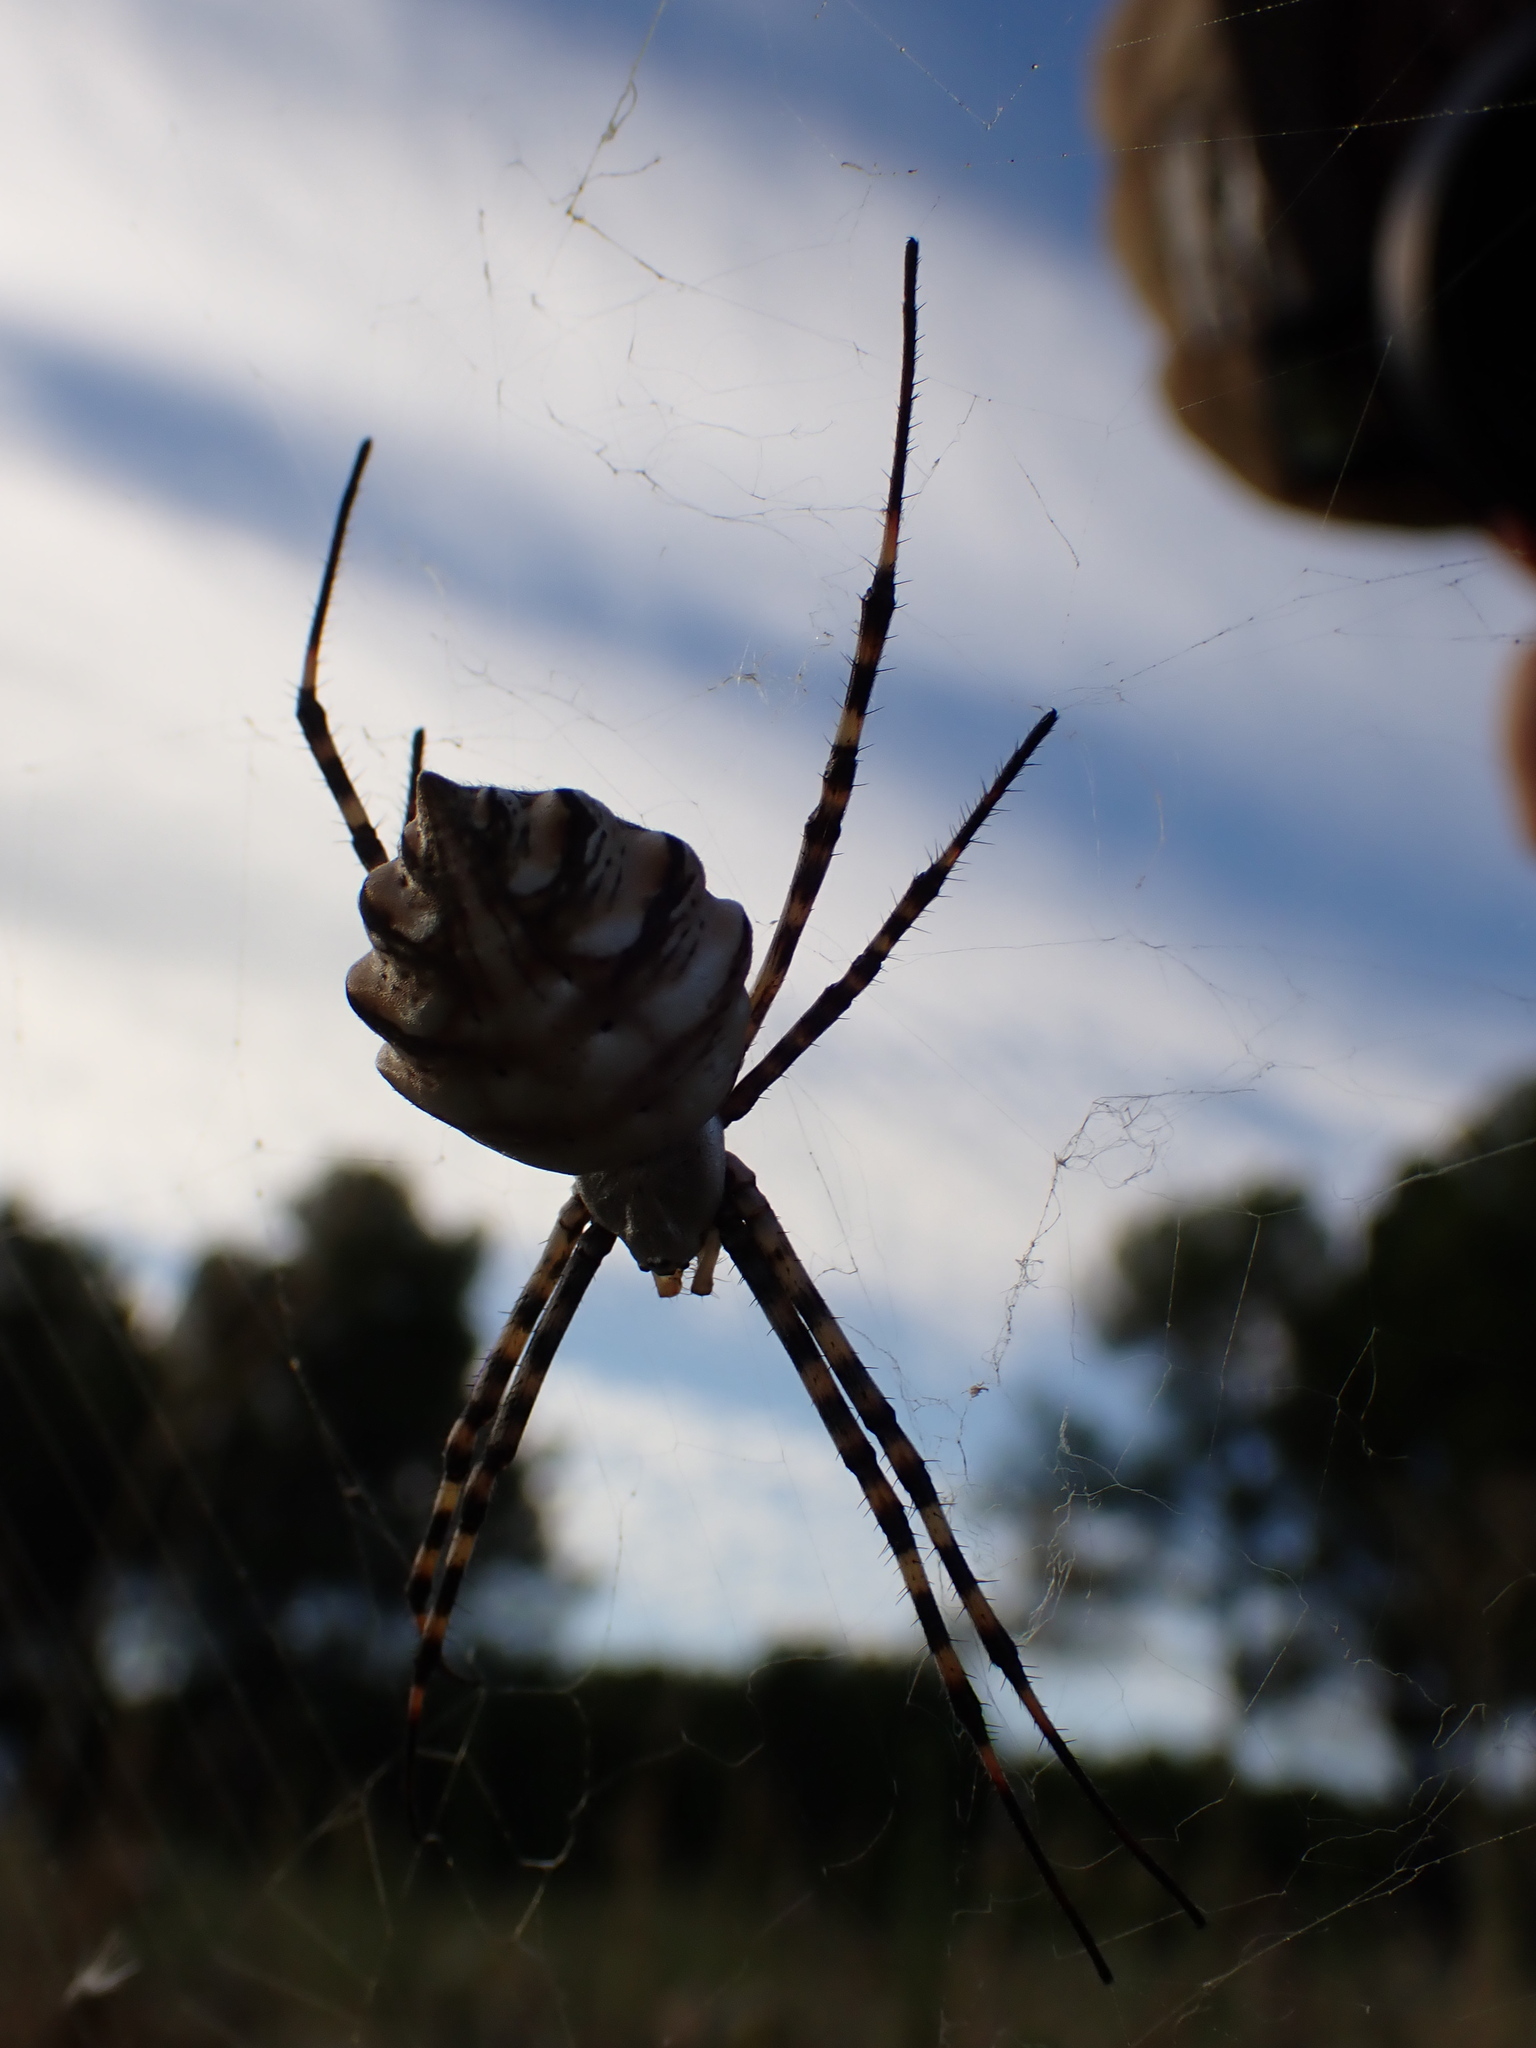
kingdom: Animalia
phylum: Arthropoda
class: Arachnida
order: Araneae
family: Araneidae
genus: Argiope
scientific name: Argiope lobata
